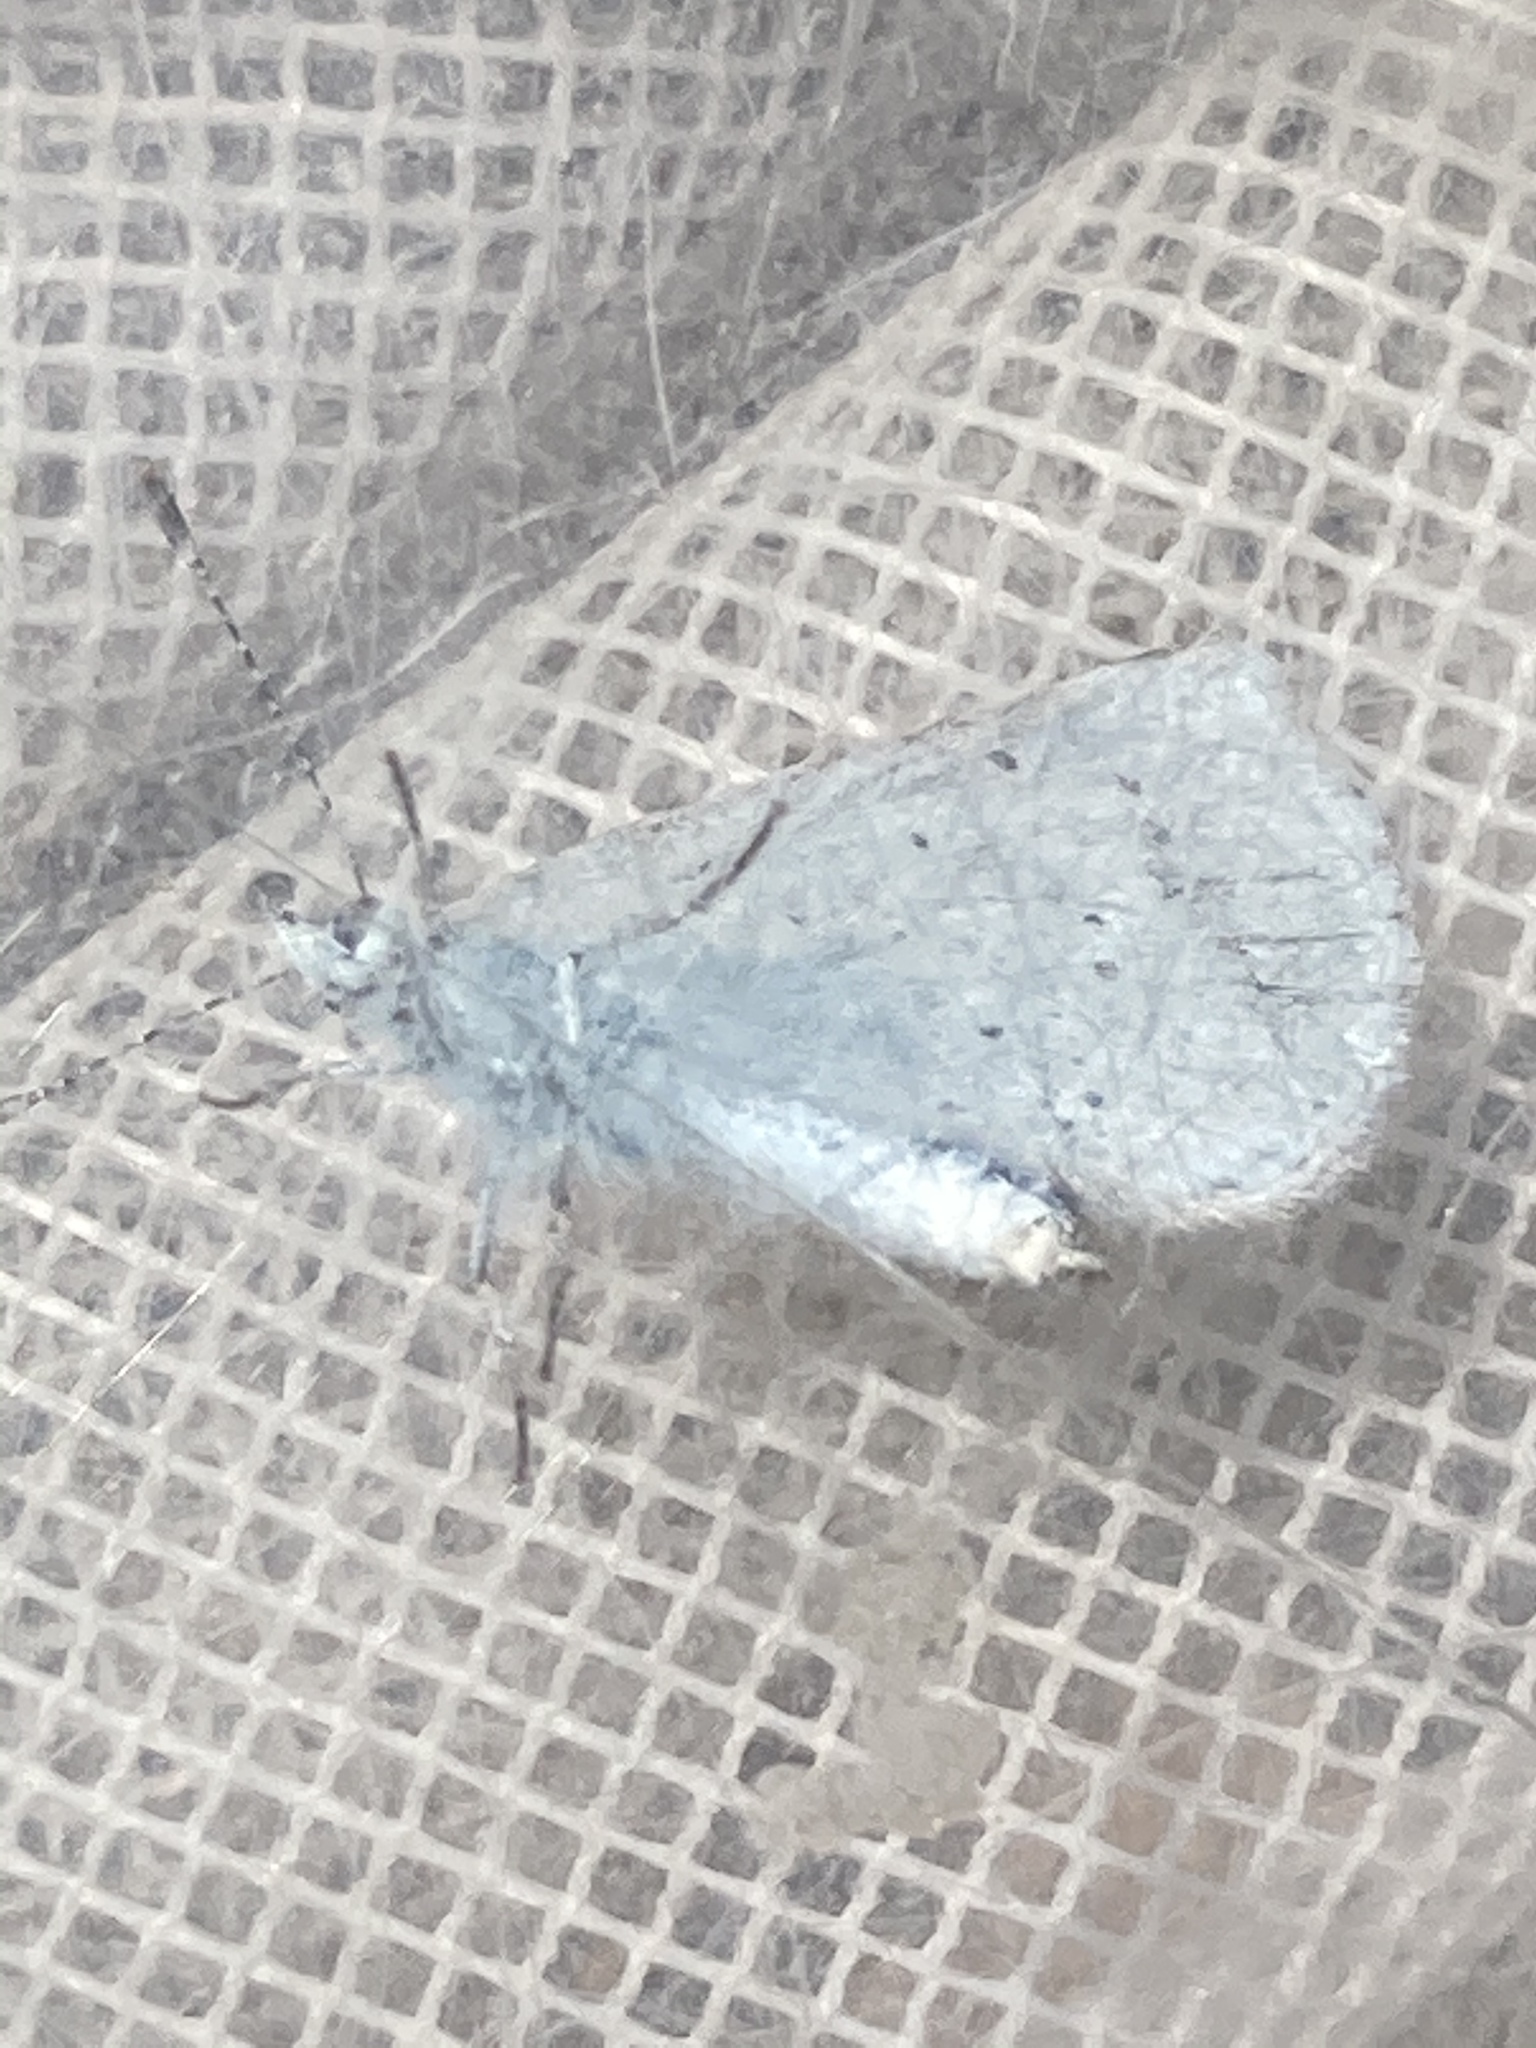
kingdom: Animalia
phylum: Arthropoda
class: Insecta
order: Lepidoptera
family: Lycaenidae
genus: Celastrina
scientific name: Celastrina argiolus
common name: Holly blue
